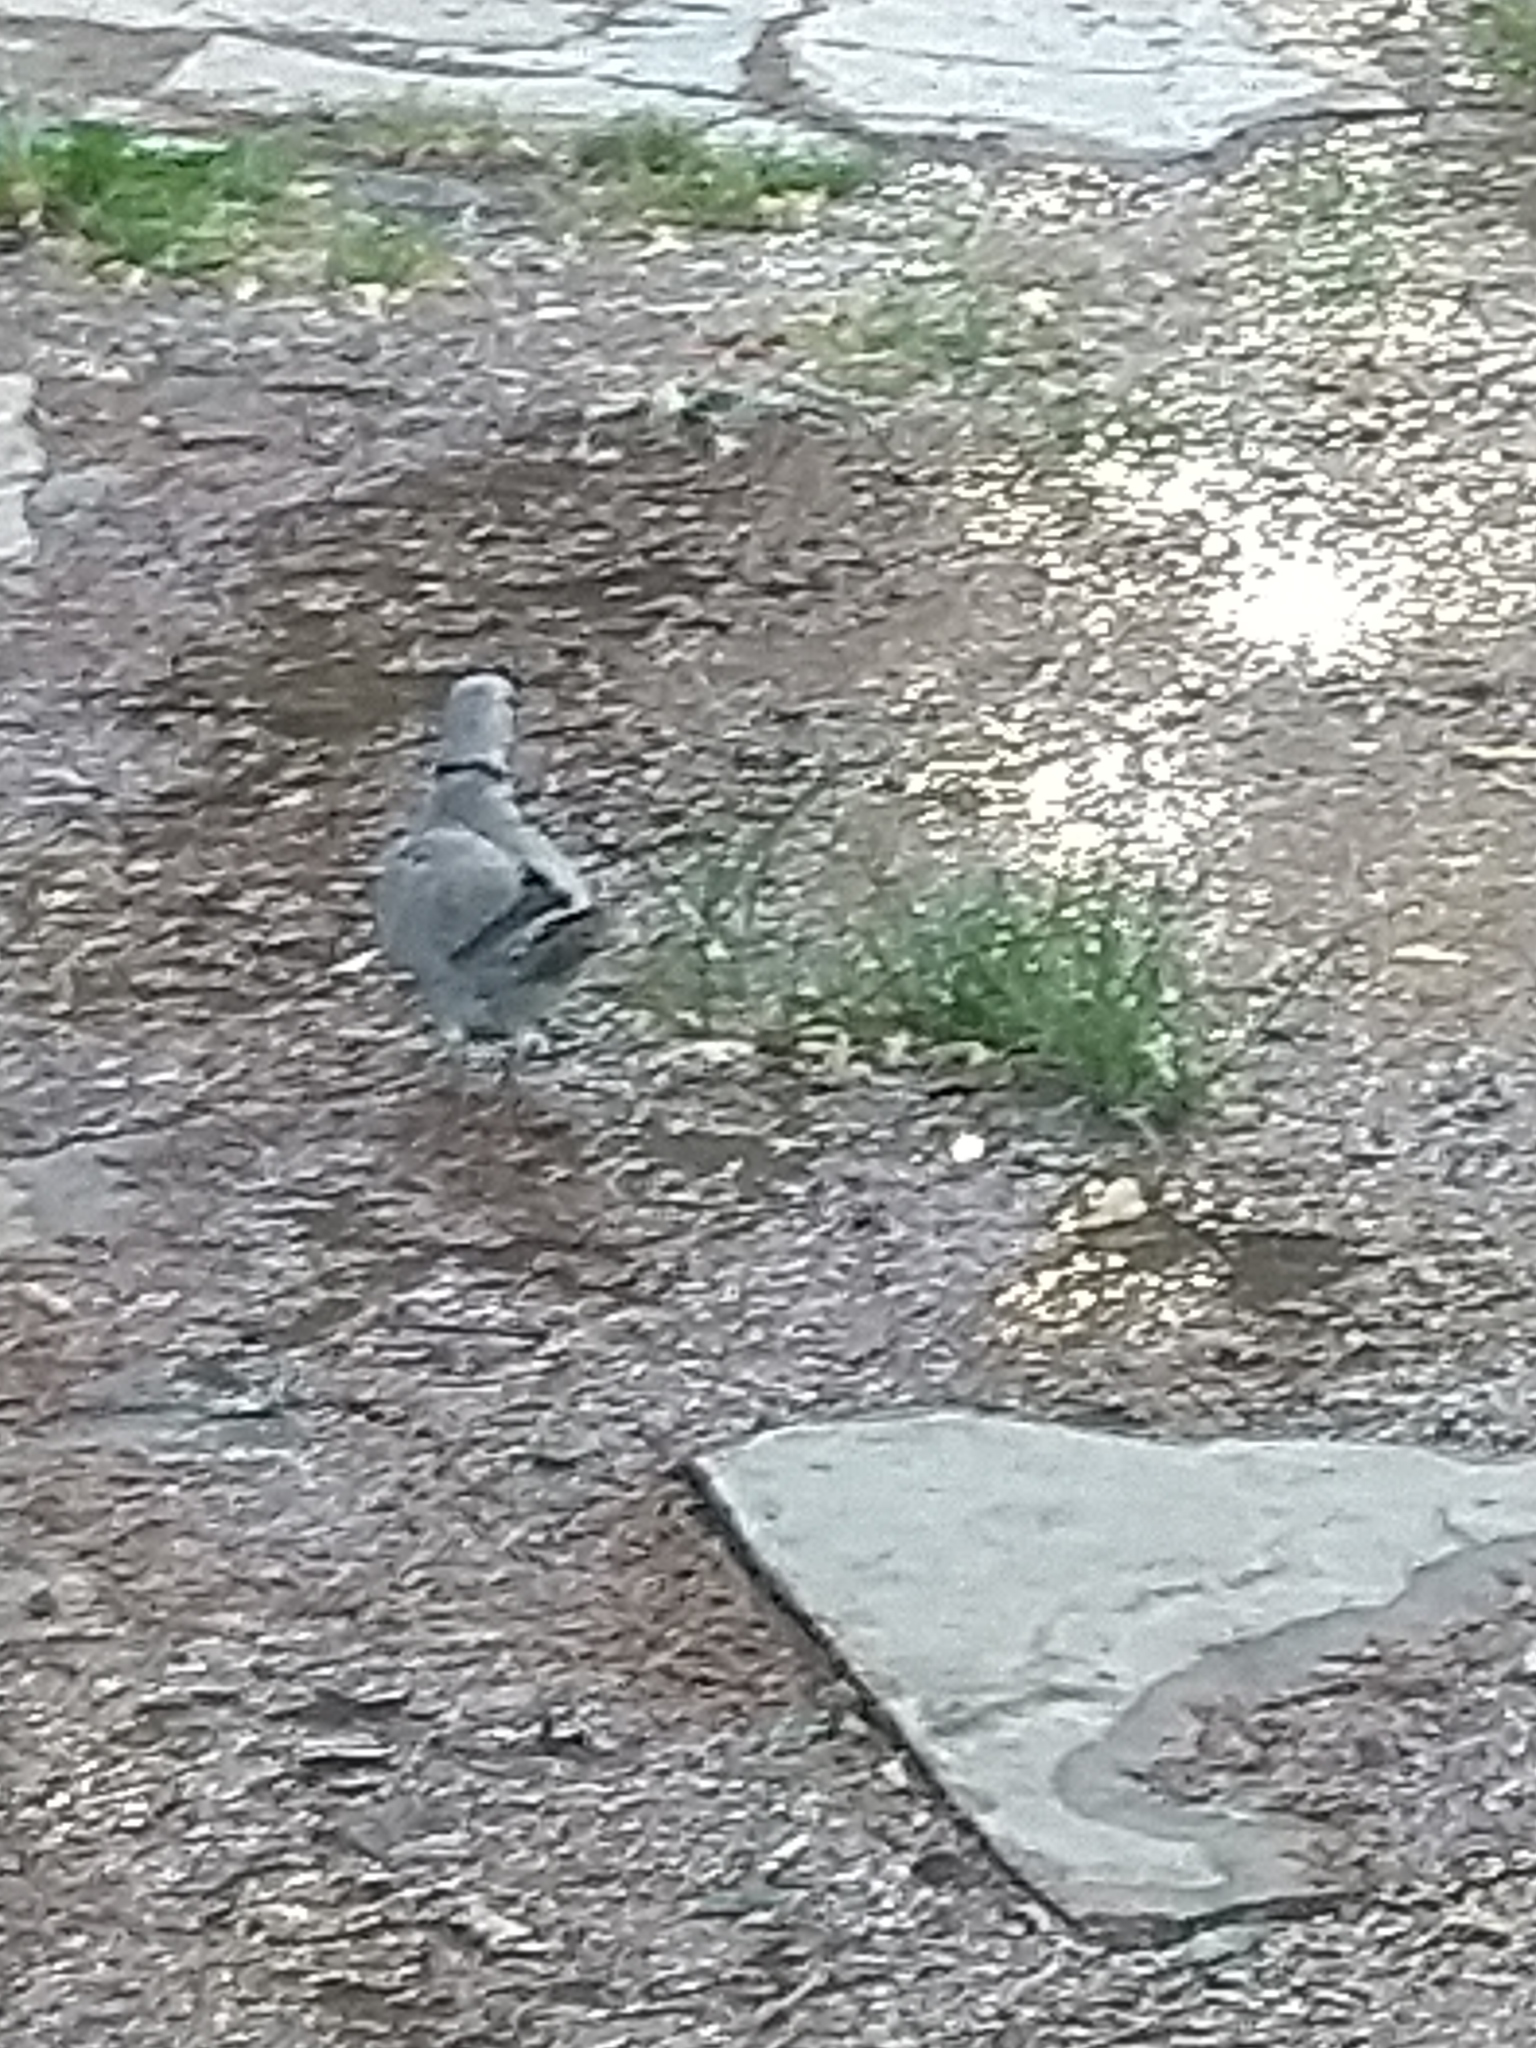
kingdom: Animalia
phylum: Chordata
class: Aves
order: Columbiformes
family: Columbidae
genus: Streptopelia
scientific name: Streptopelia decaocto
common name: Eurasian collared dove
